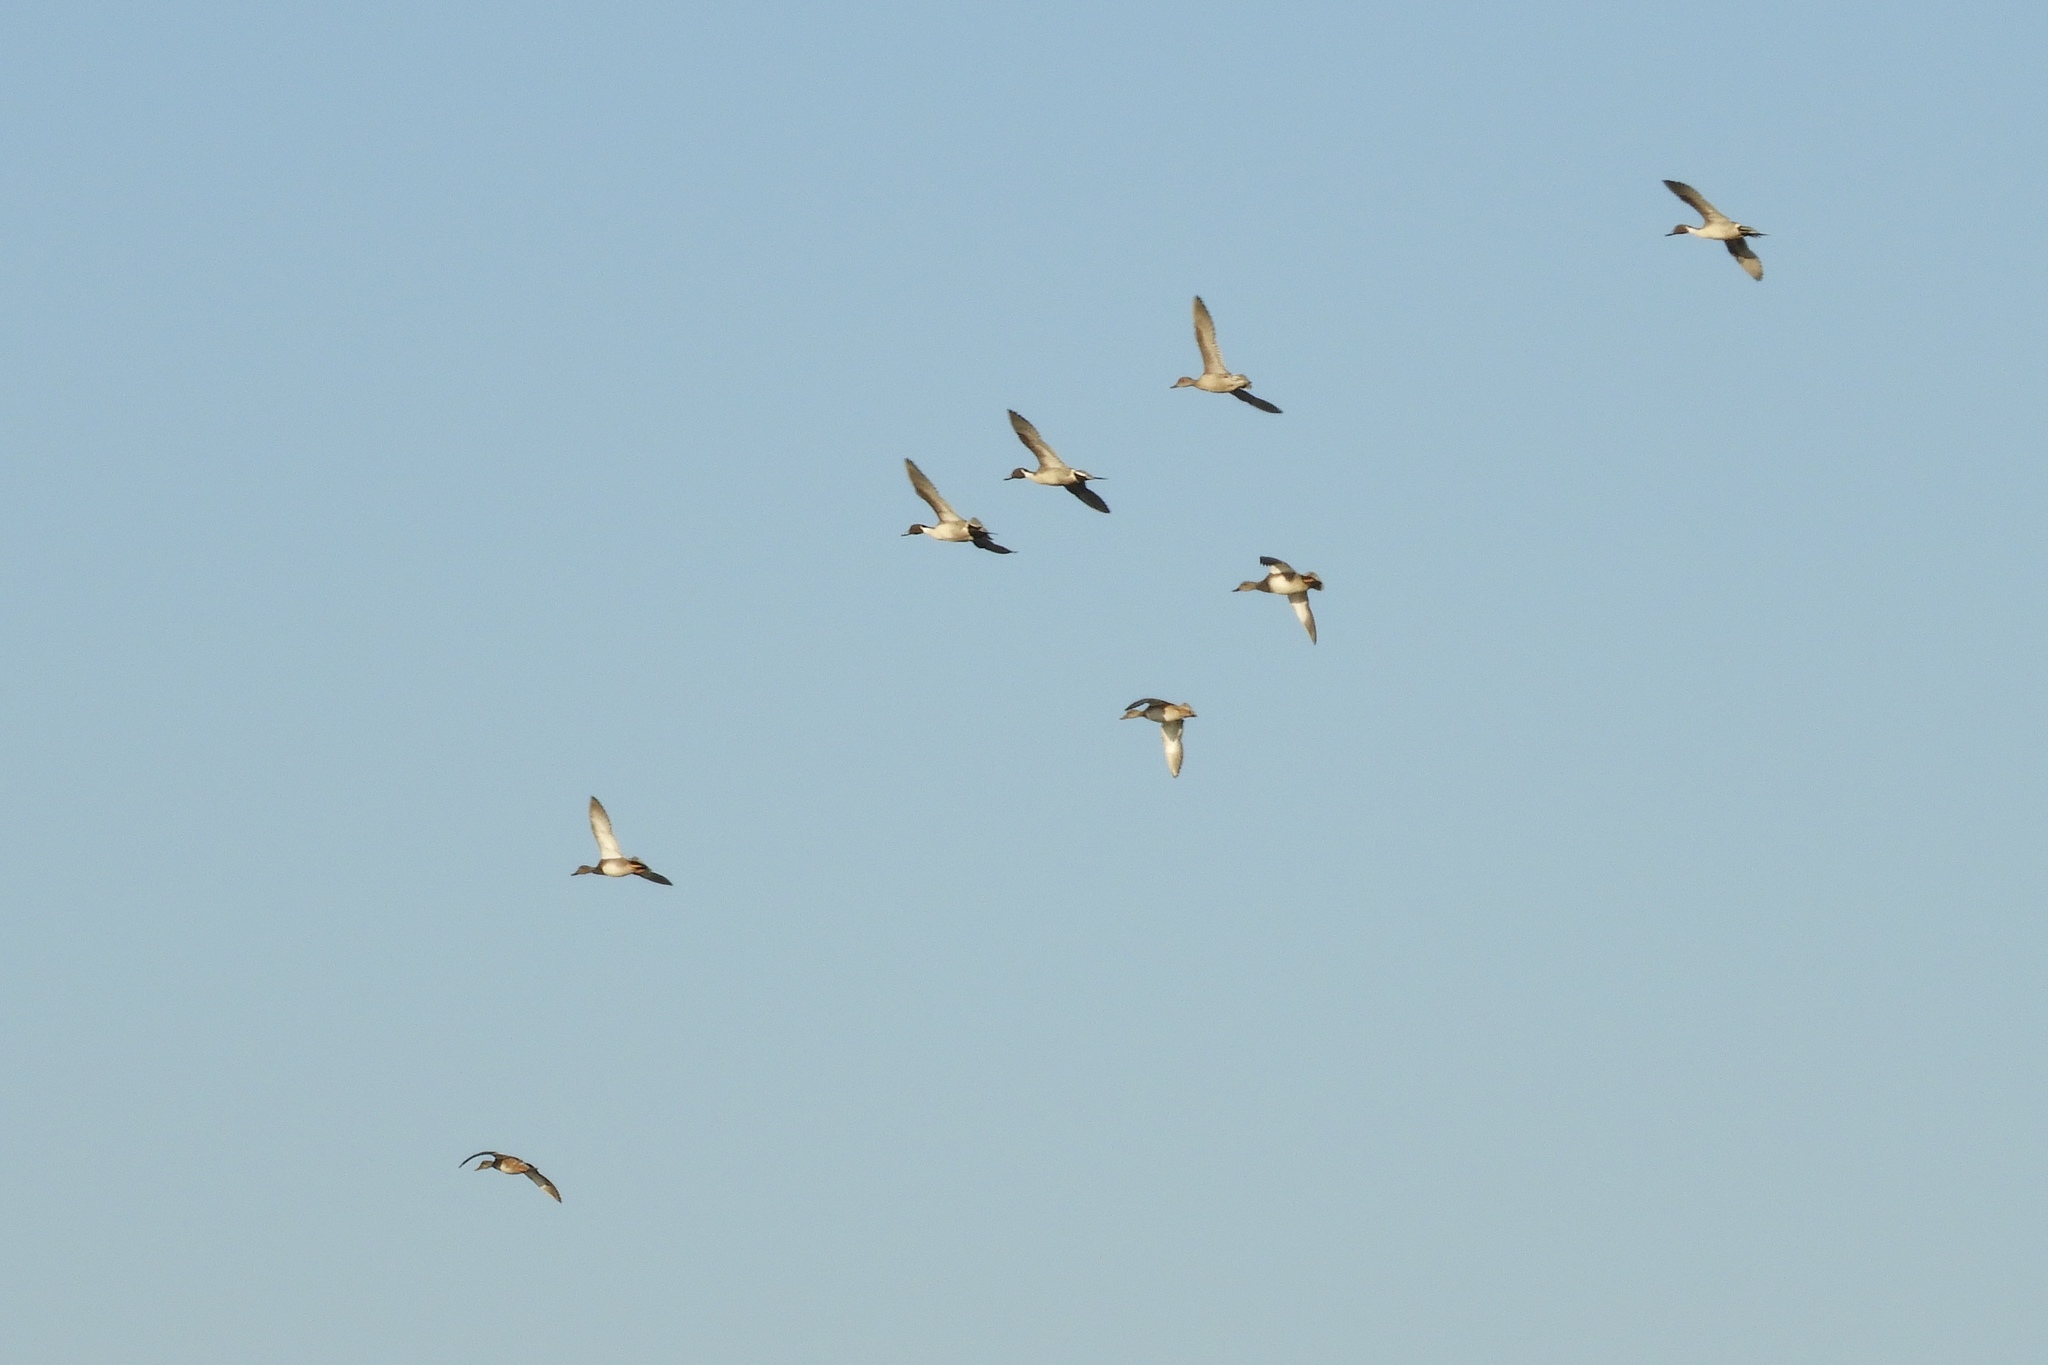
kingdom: Animalia
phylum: Chordata
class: Aves
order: Anseriformes
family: Anatidae
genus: Anas
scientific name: Anas acuta
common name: Northern pintail
